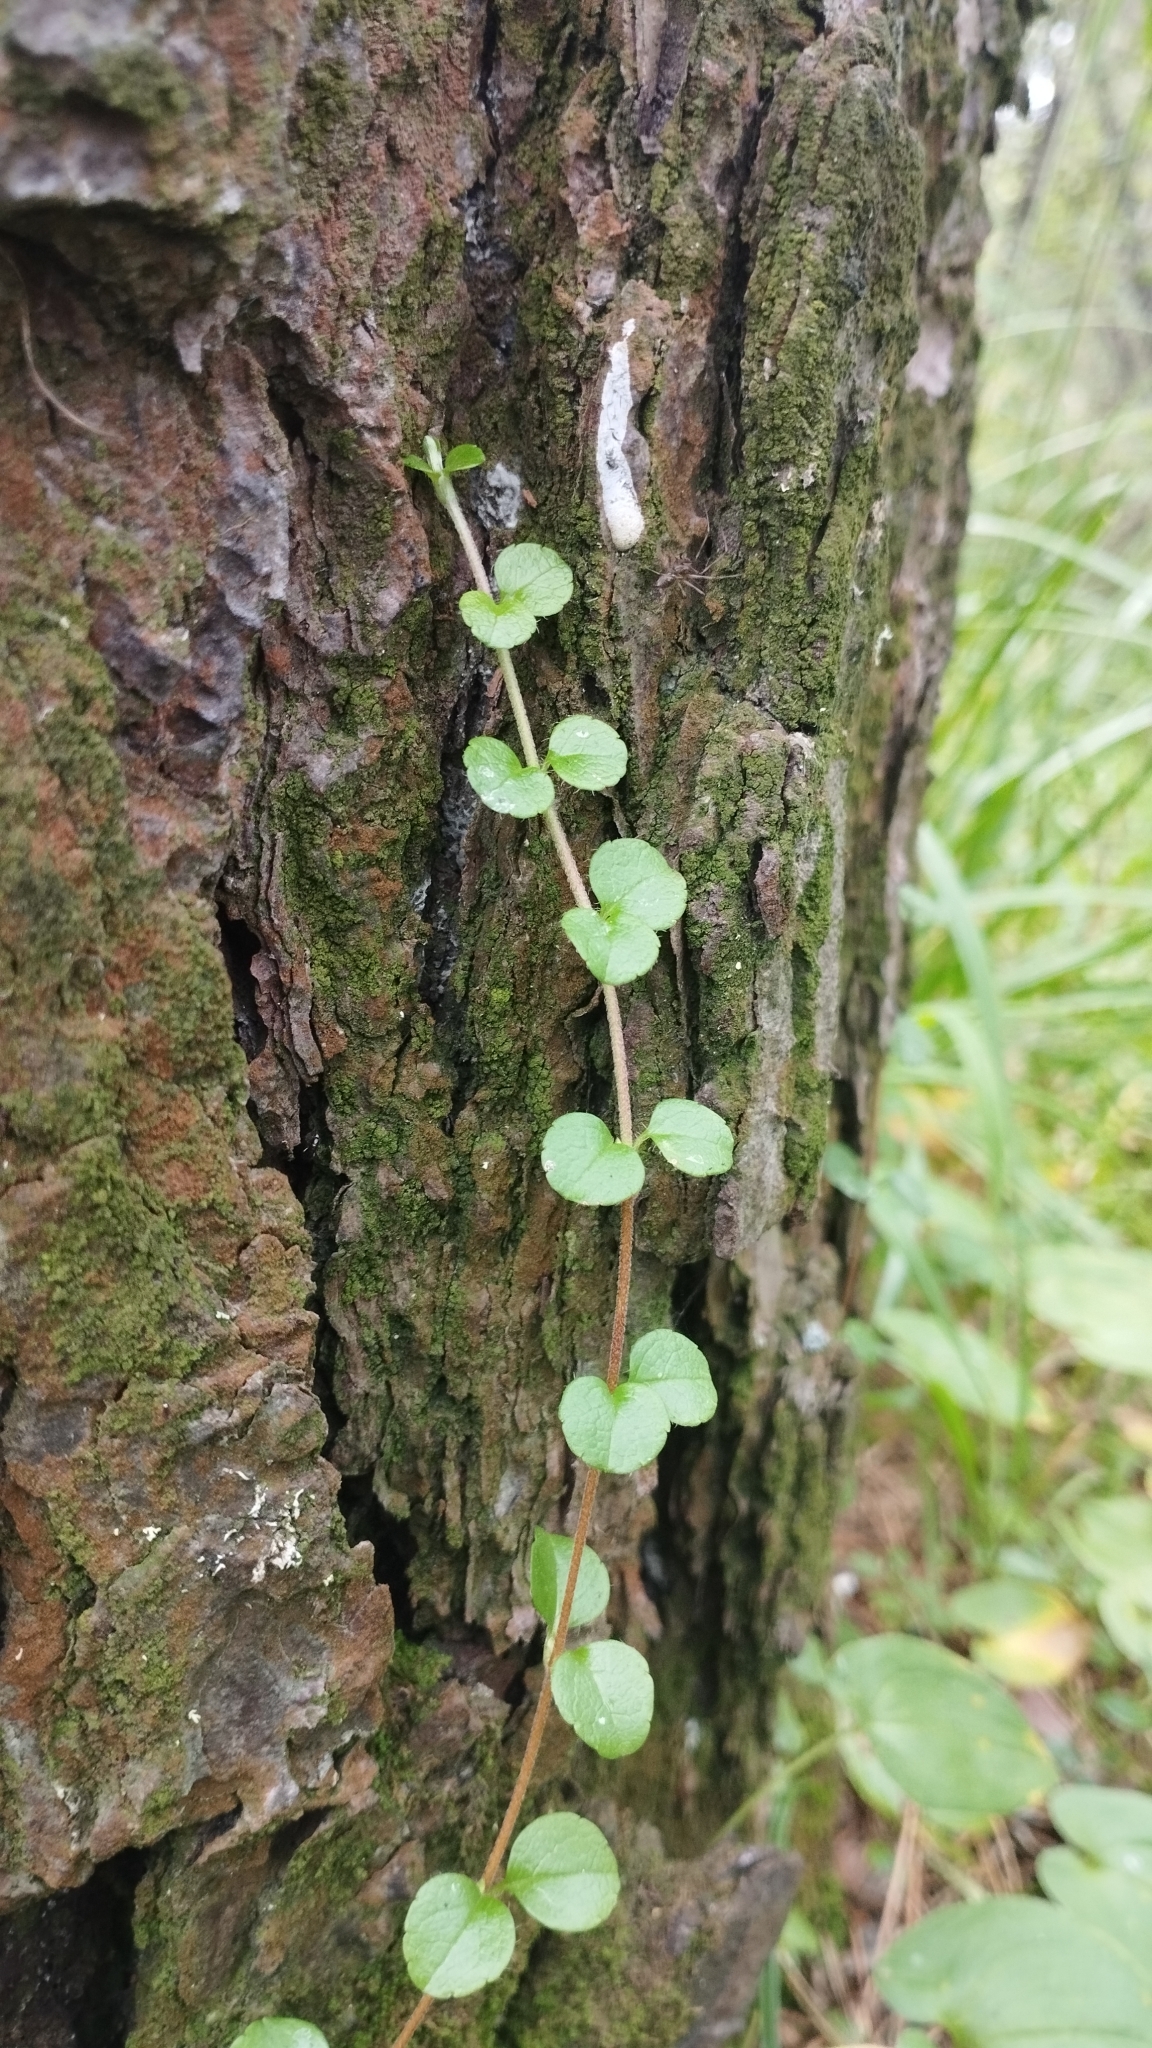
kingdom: Plantae
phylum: Tracheophyta
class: Magnoliopsida
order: Dipsacales
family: Caprifoliaceae
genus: Linnaea
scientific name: Linnaea borealis
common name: Twinflower
